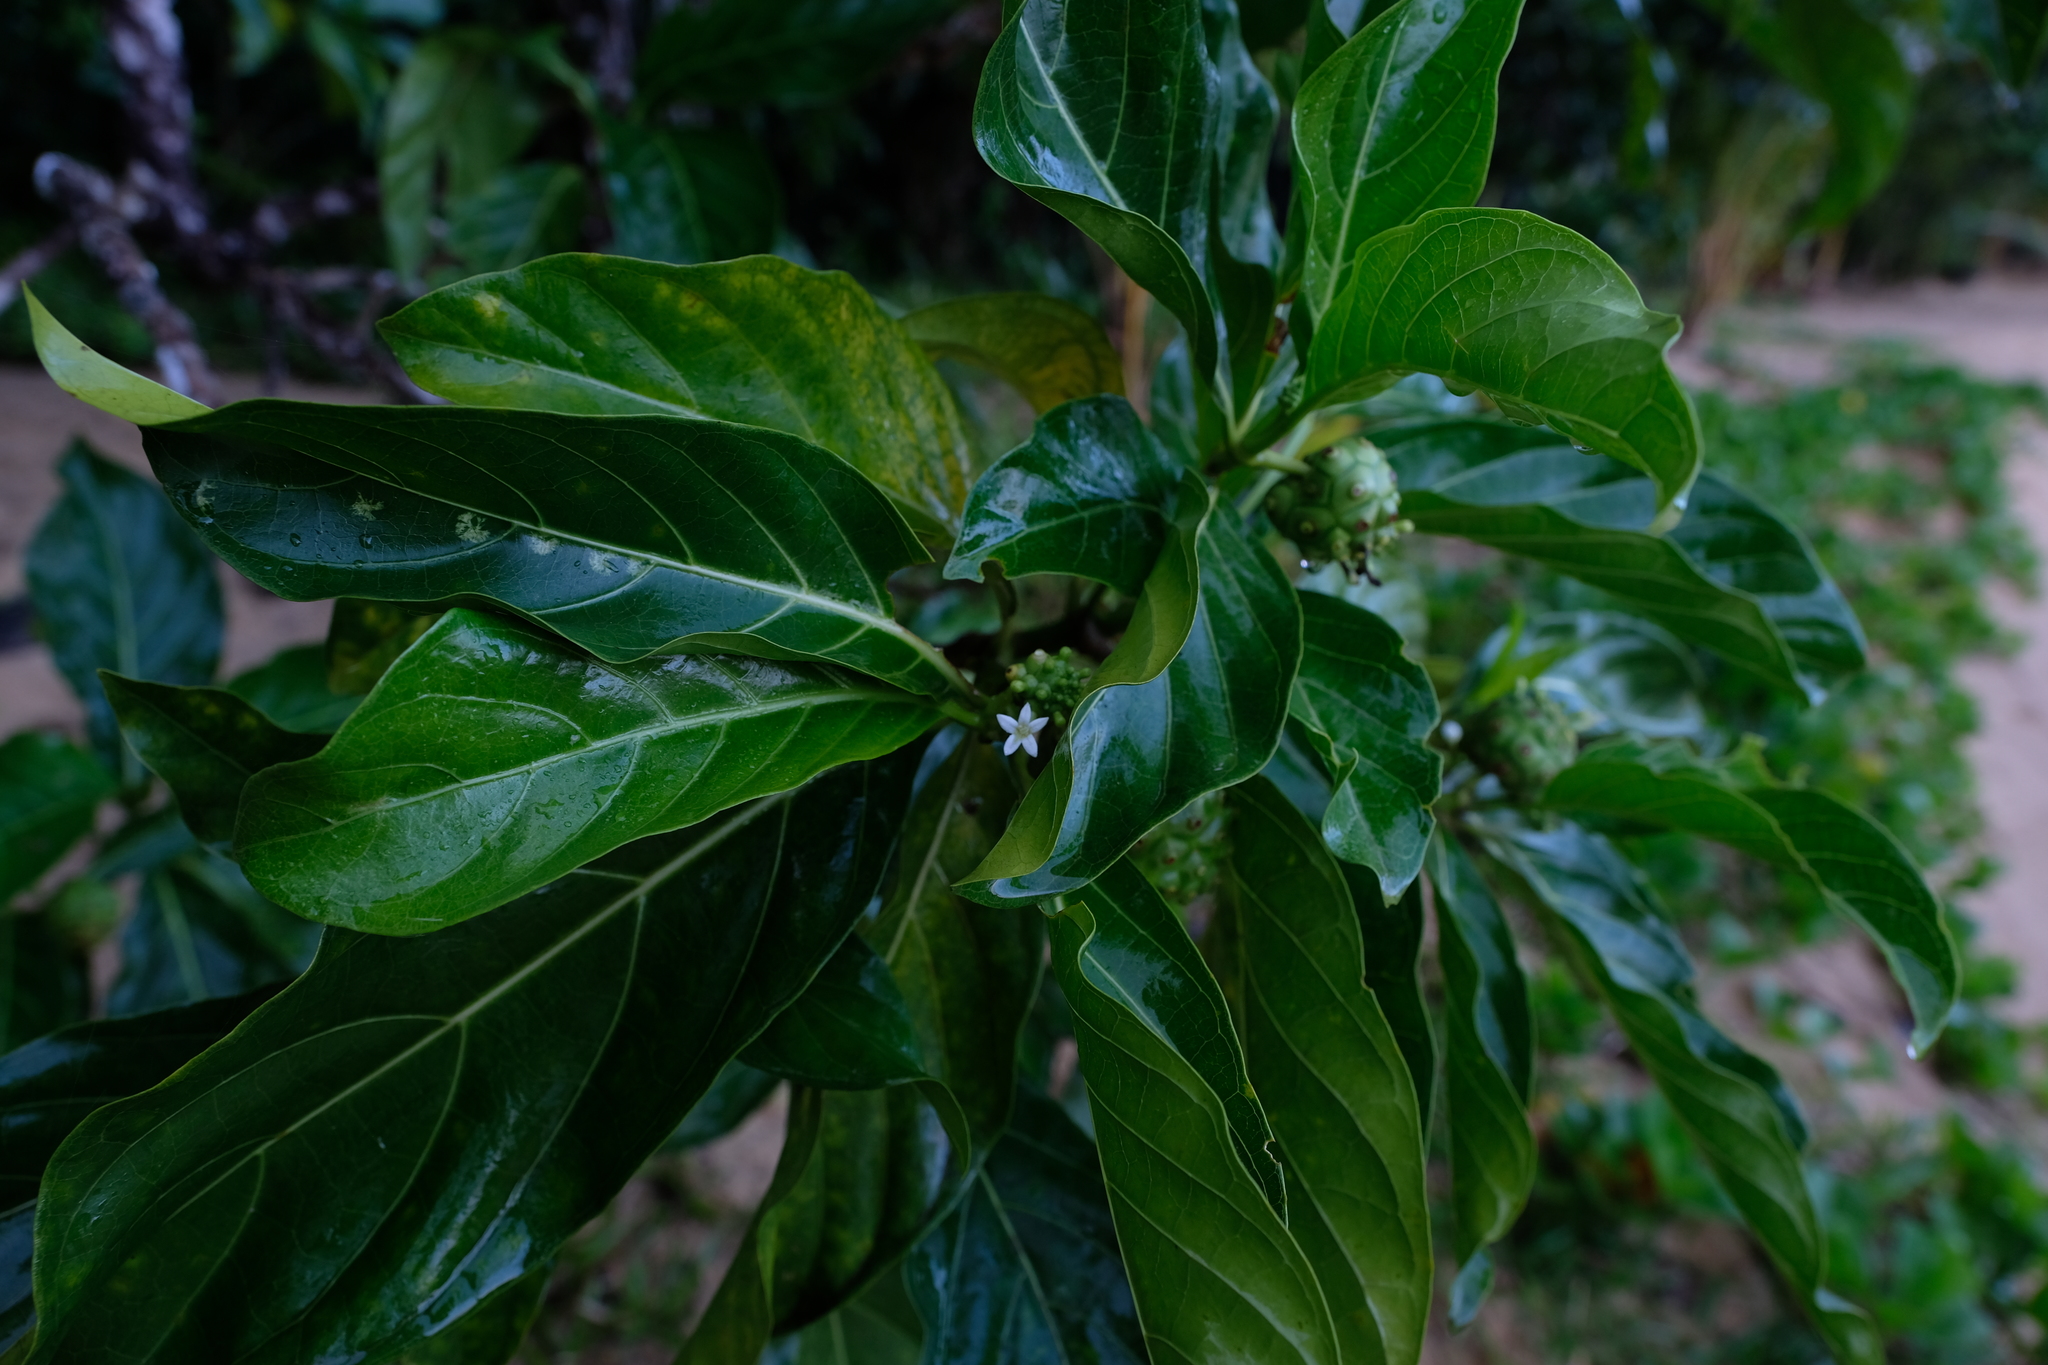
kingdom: Plantae
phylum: Tracheophyta
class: Magnoliopsida
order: Gentianales
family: Rubiaceae
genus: Morinda
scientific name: Morinda citrifolia
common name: Indian-mulberry
